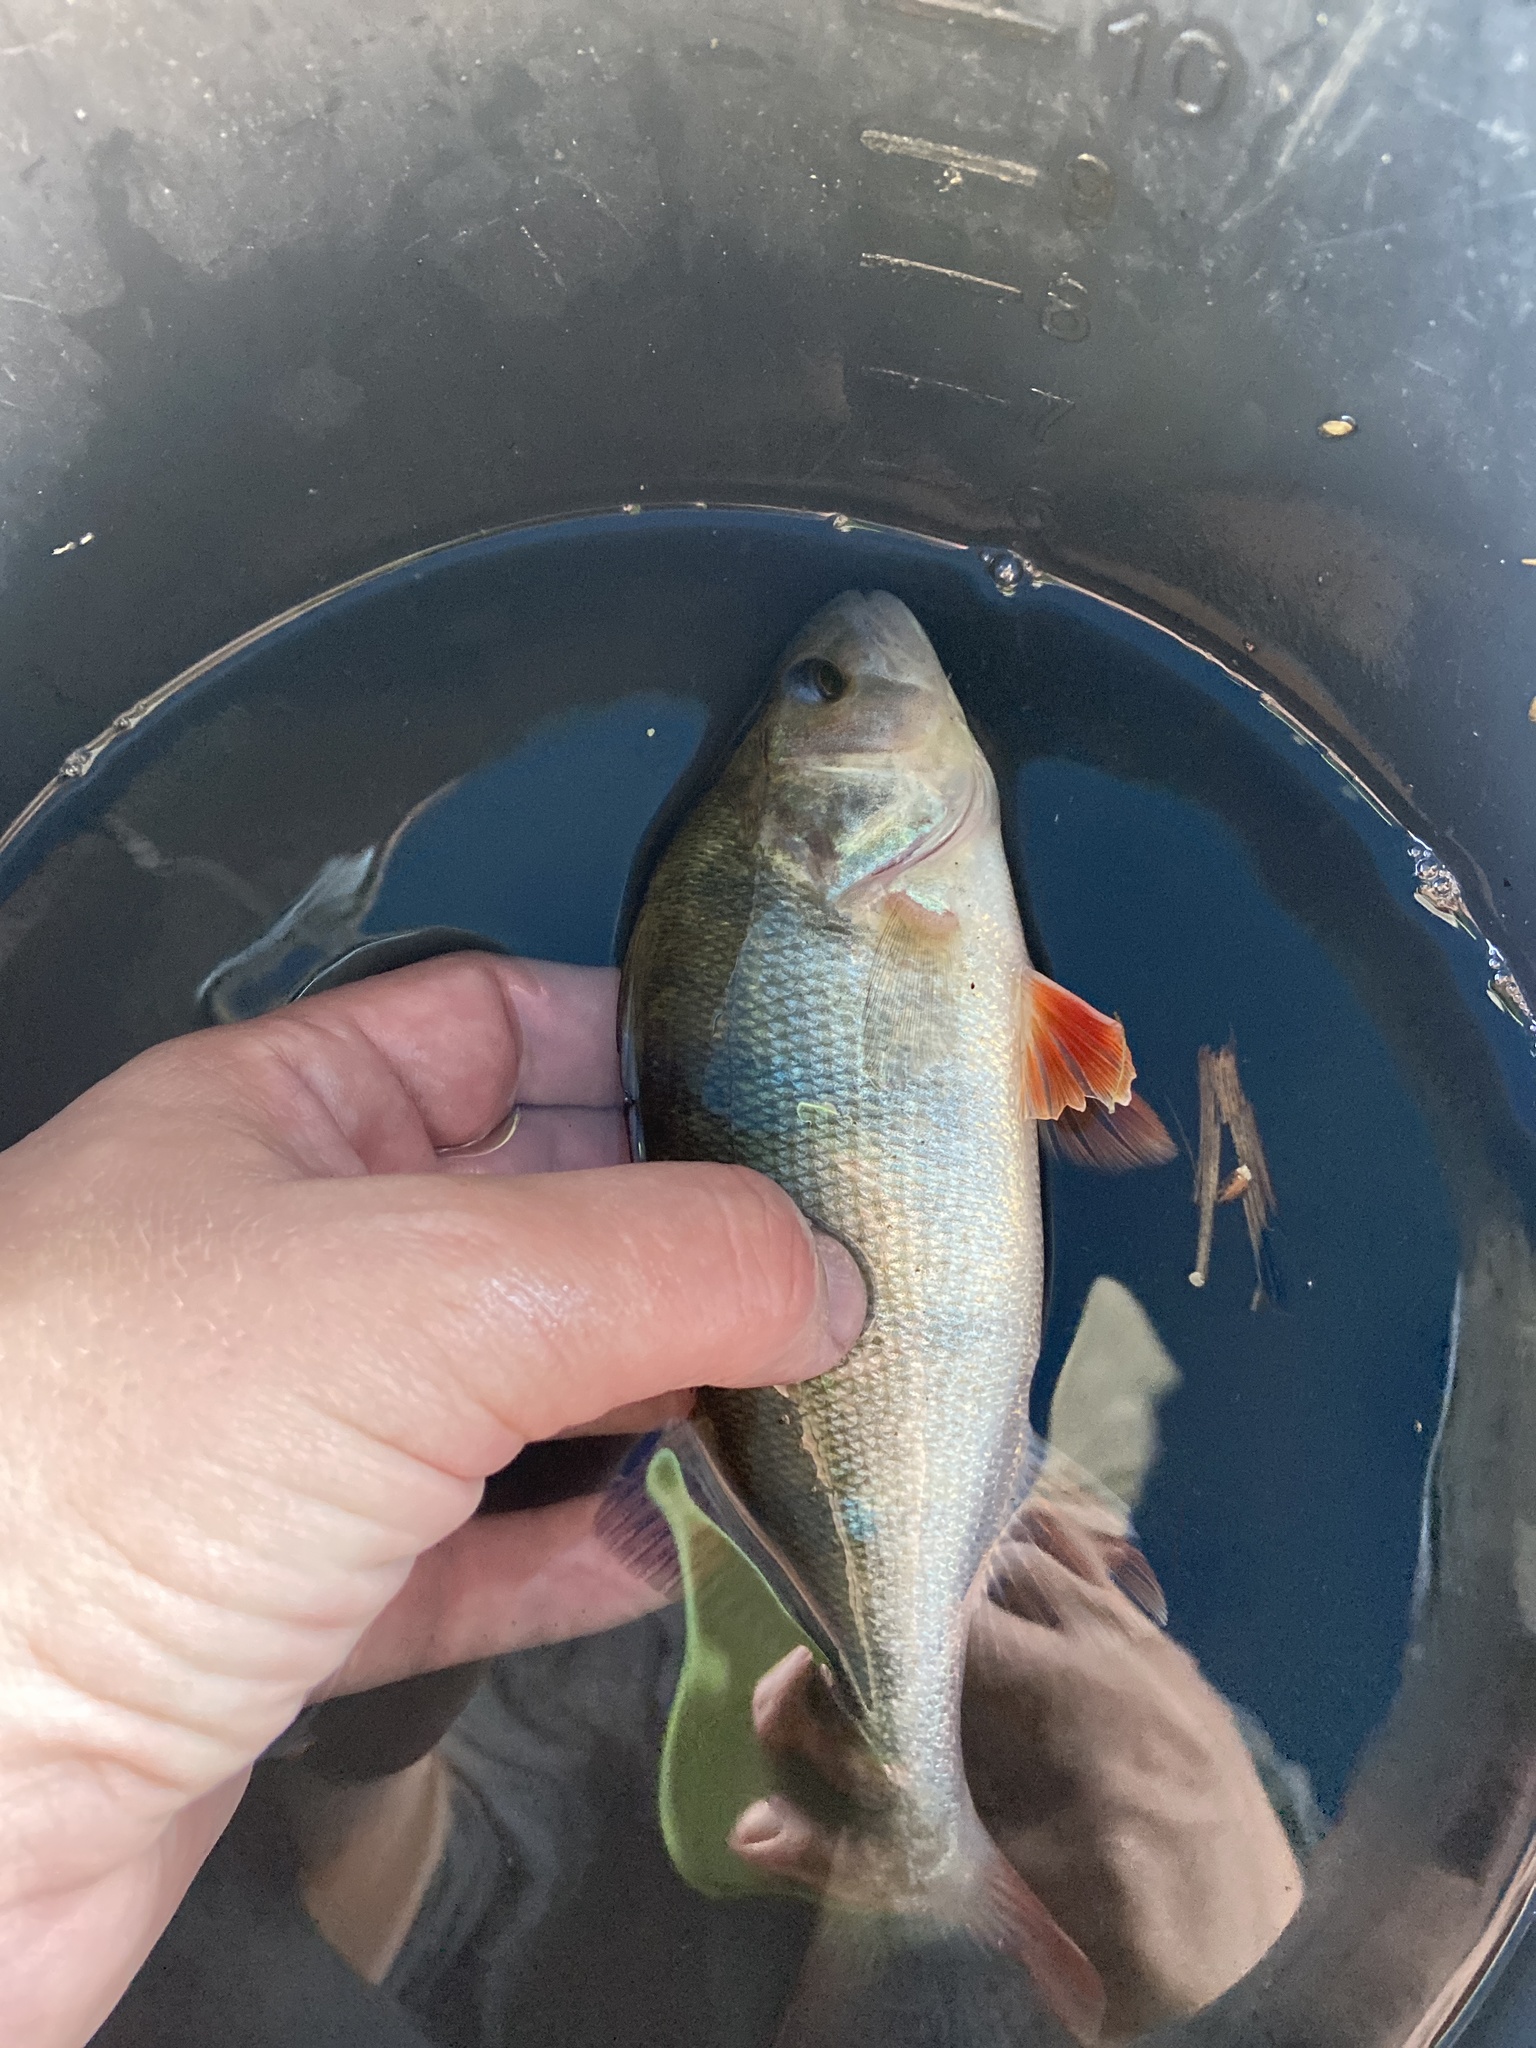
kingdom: Animalia
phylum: Chordata
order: Perciformes
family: Percidae
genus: Perca
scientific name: Perca fluviatilis
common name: Perch
